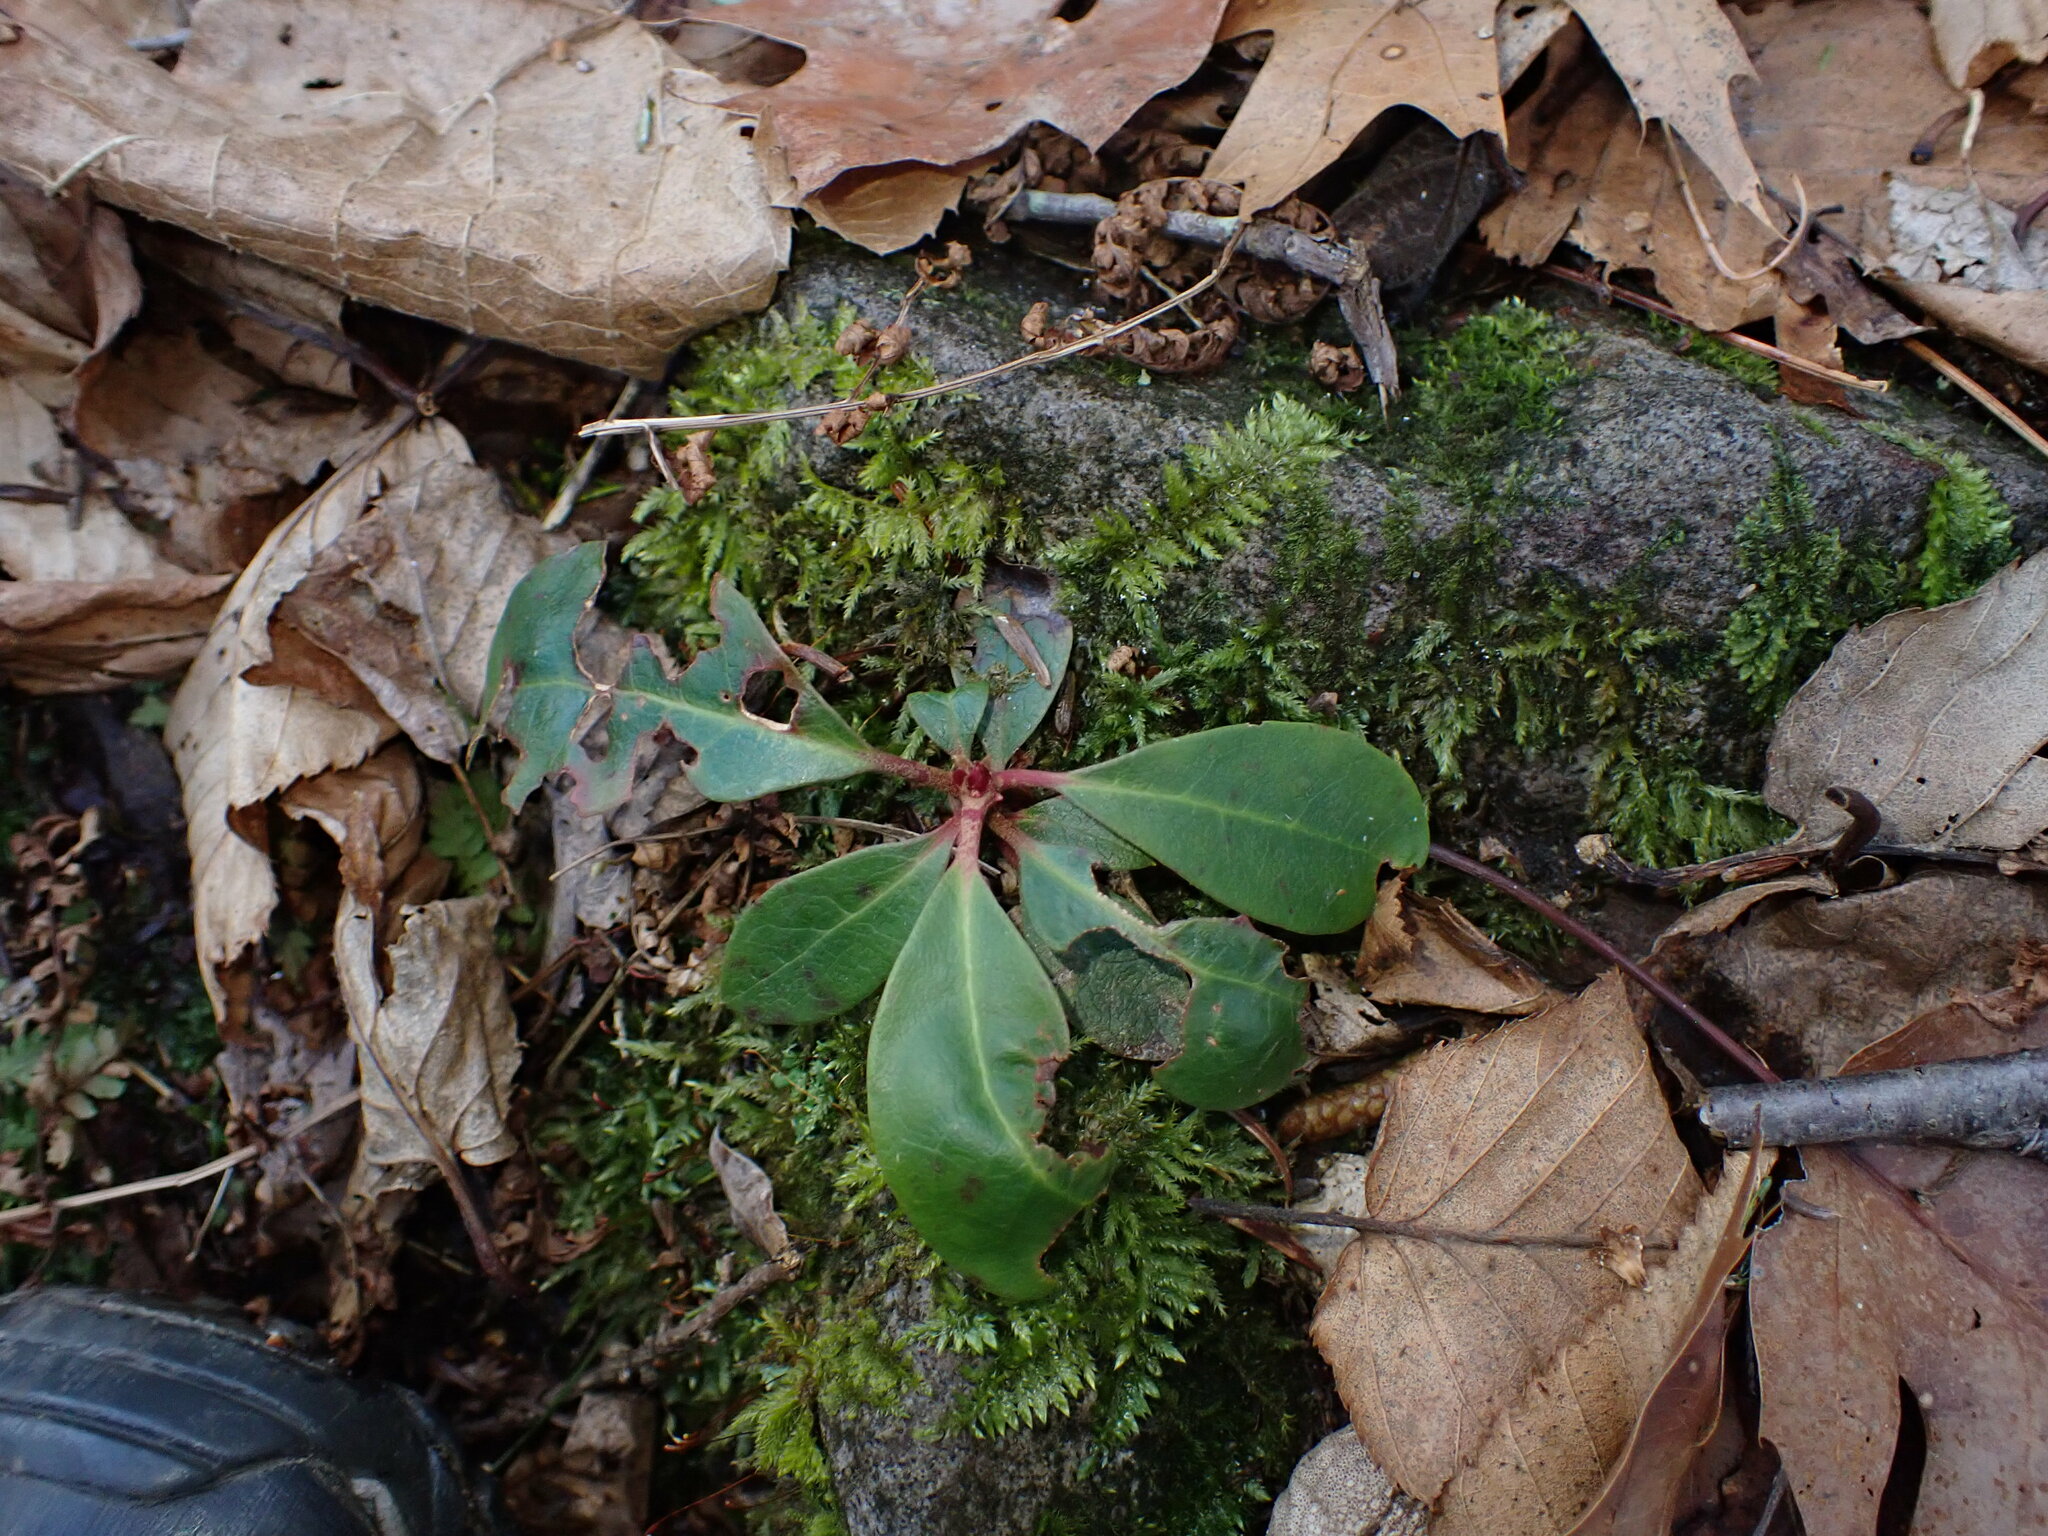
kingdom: Plantae
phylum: Tracheophyta
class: Magnoliopsida
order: Ericales
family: Ericaceae
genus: Gaultheria
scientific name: Gaultheria procumbens
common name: Checkerberry
